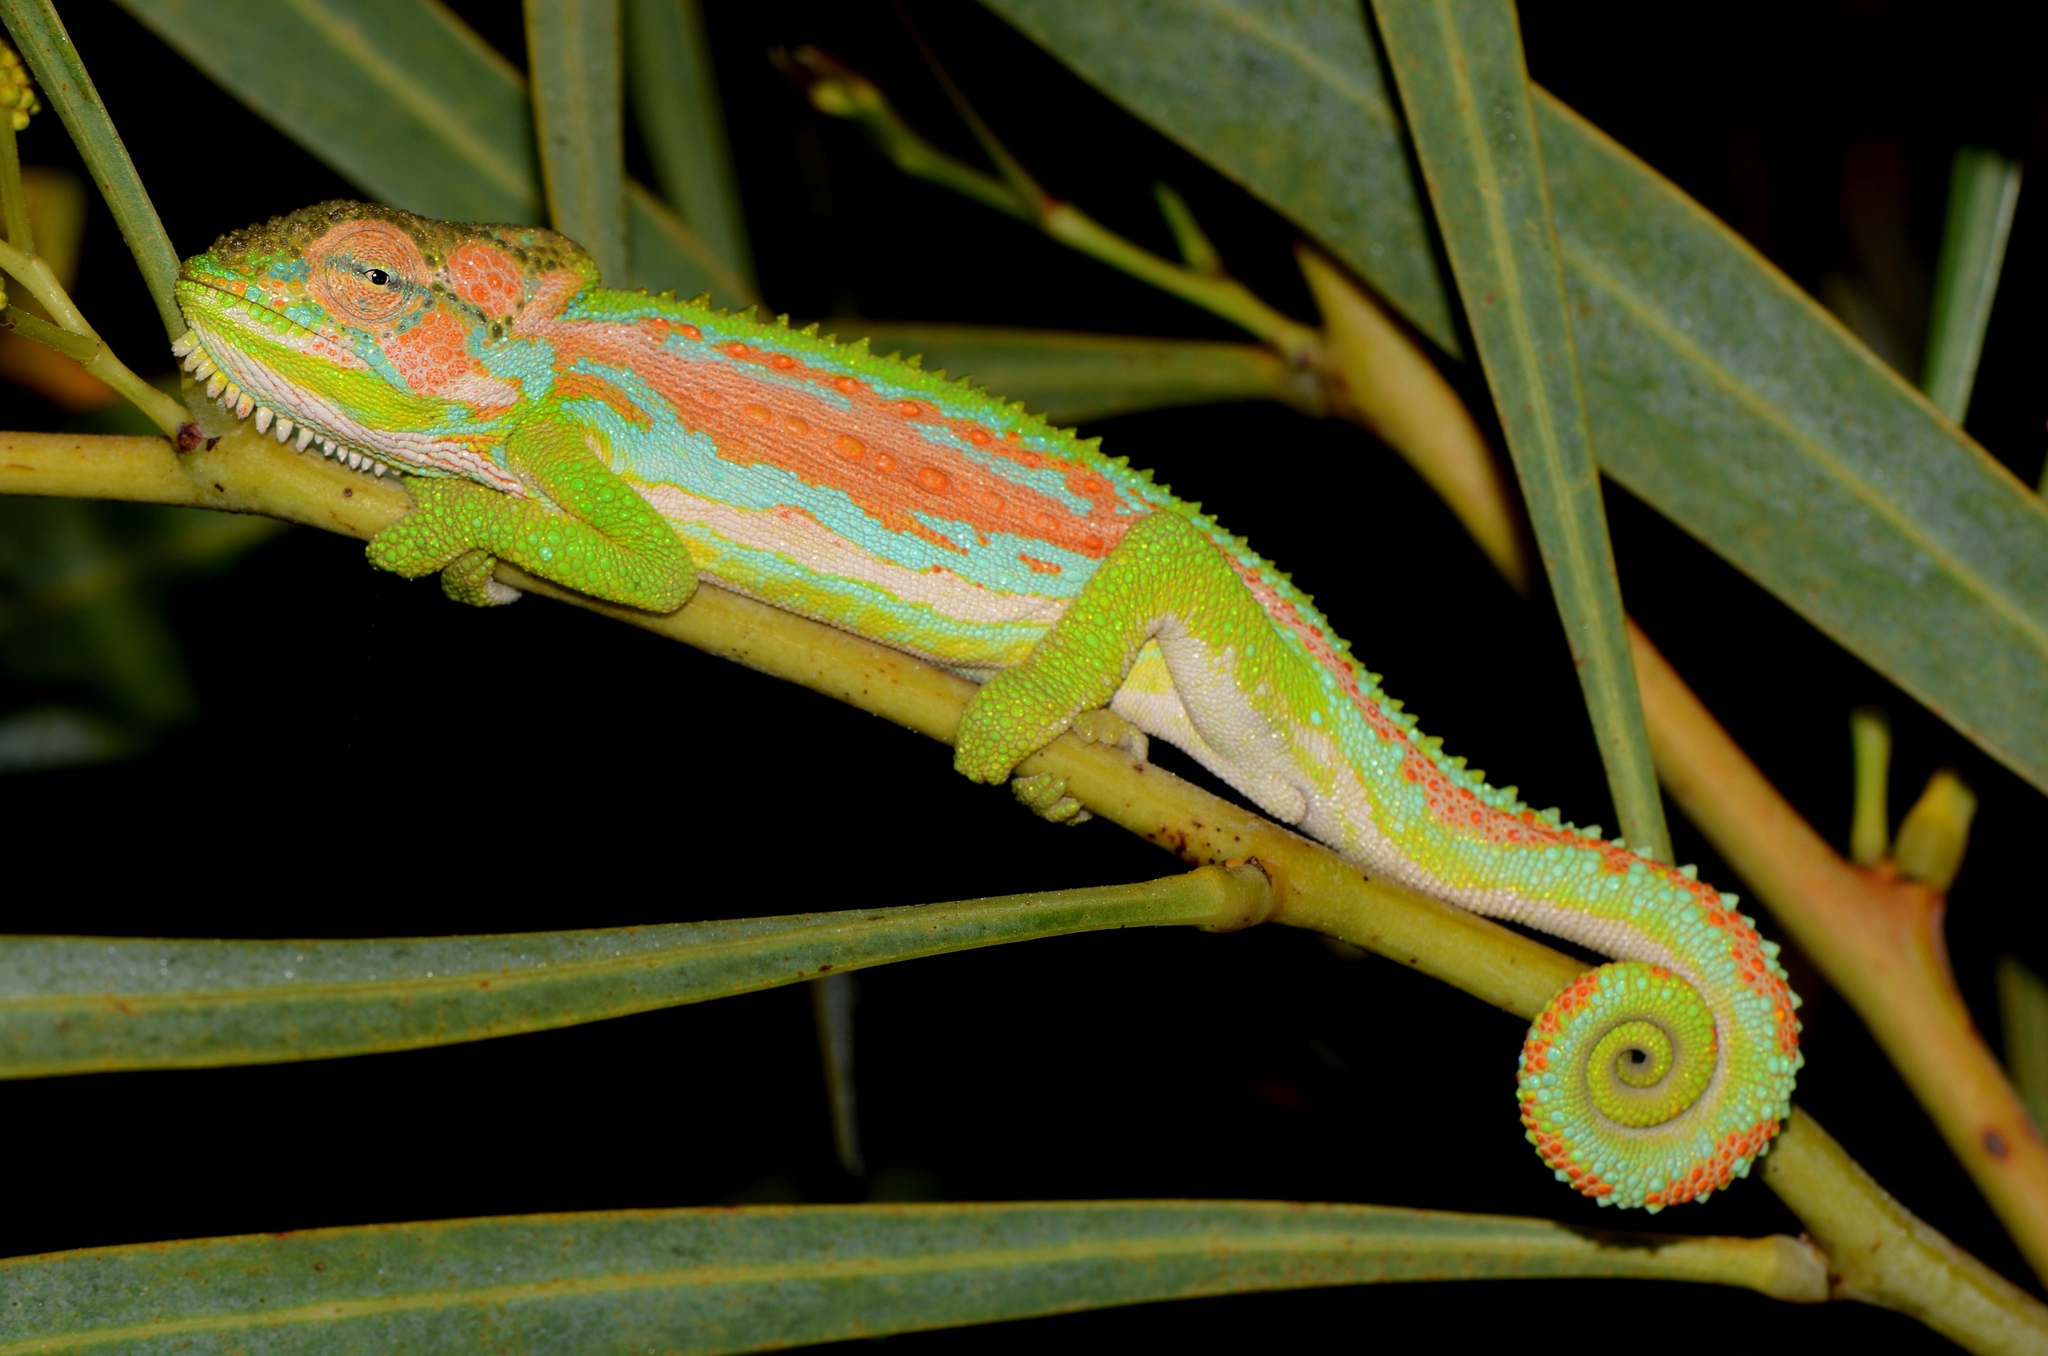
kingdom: Animalia
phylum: Chordata
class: Squamata
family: Chamaeleonidae
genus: Bradypodion
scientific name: Bradypodion pumilum
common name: Cape dwarf chameleon
